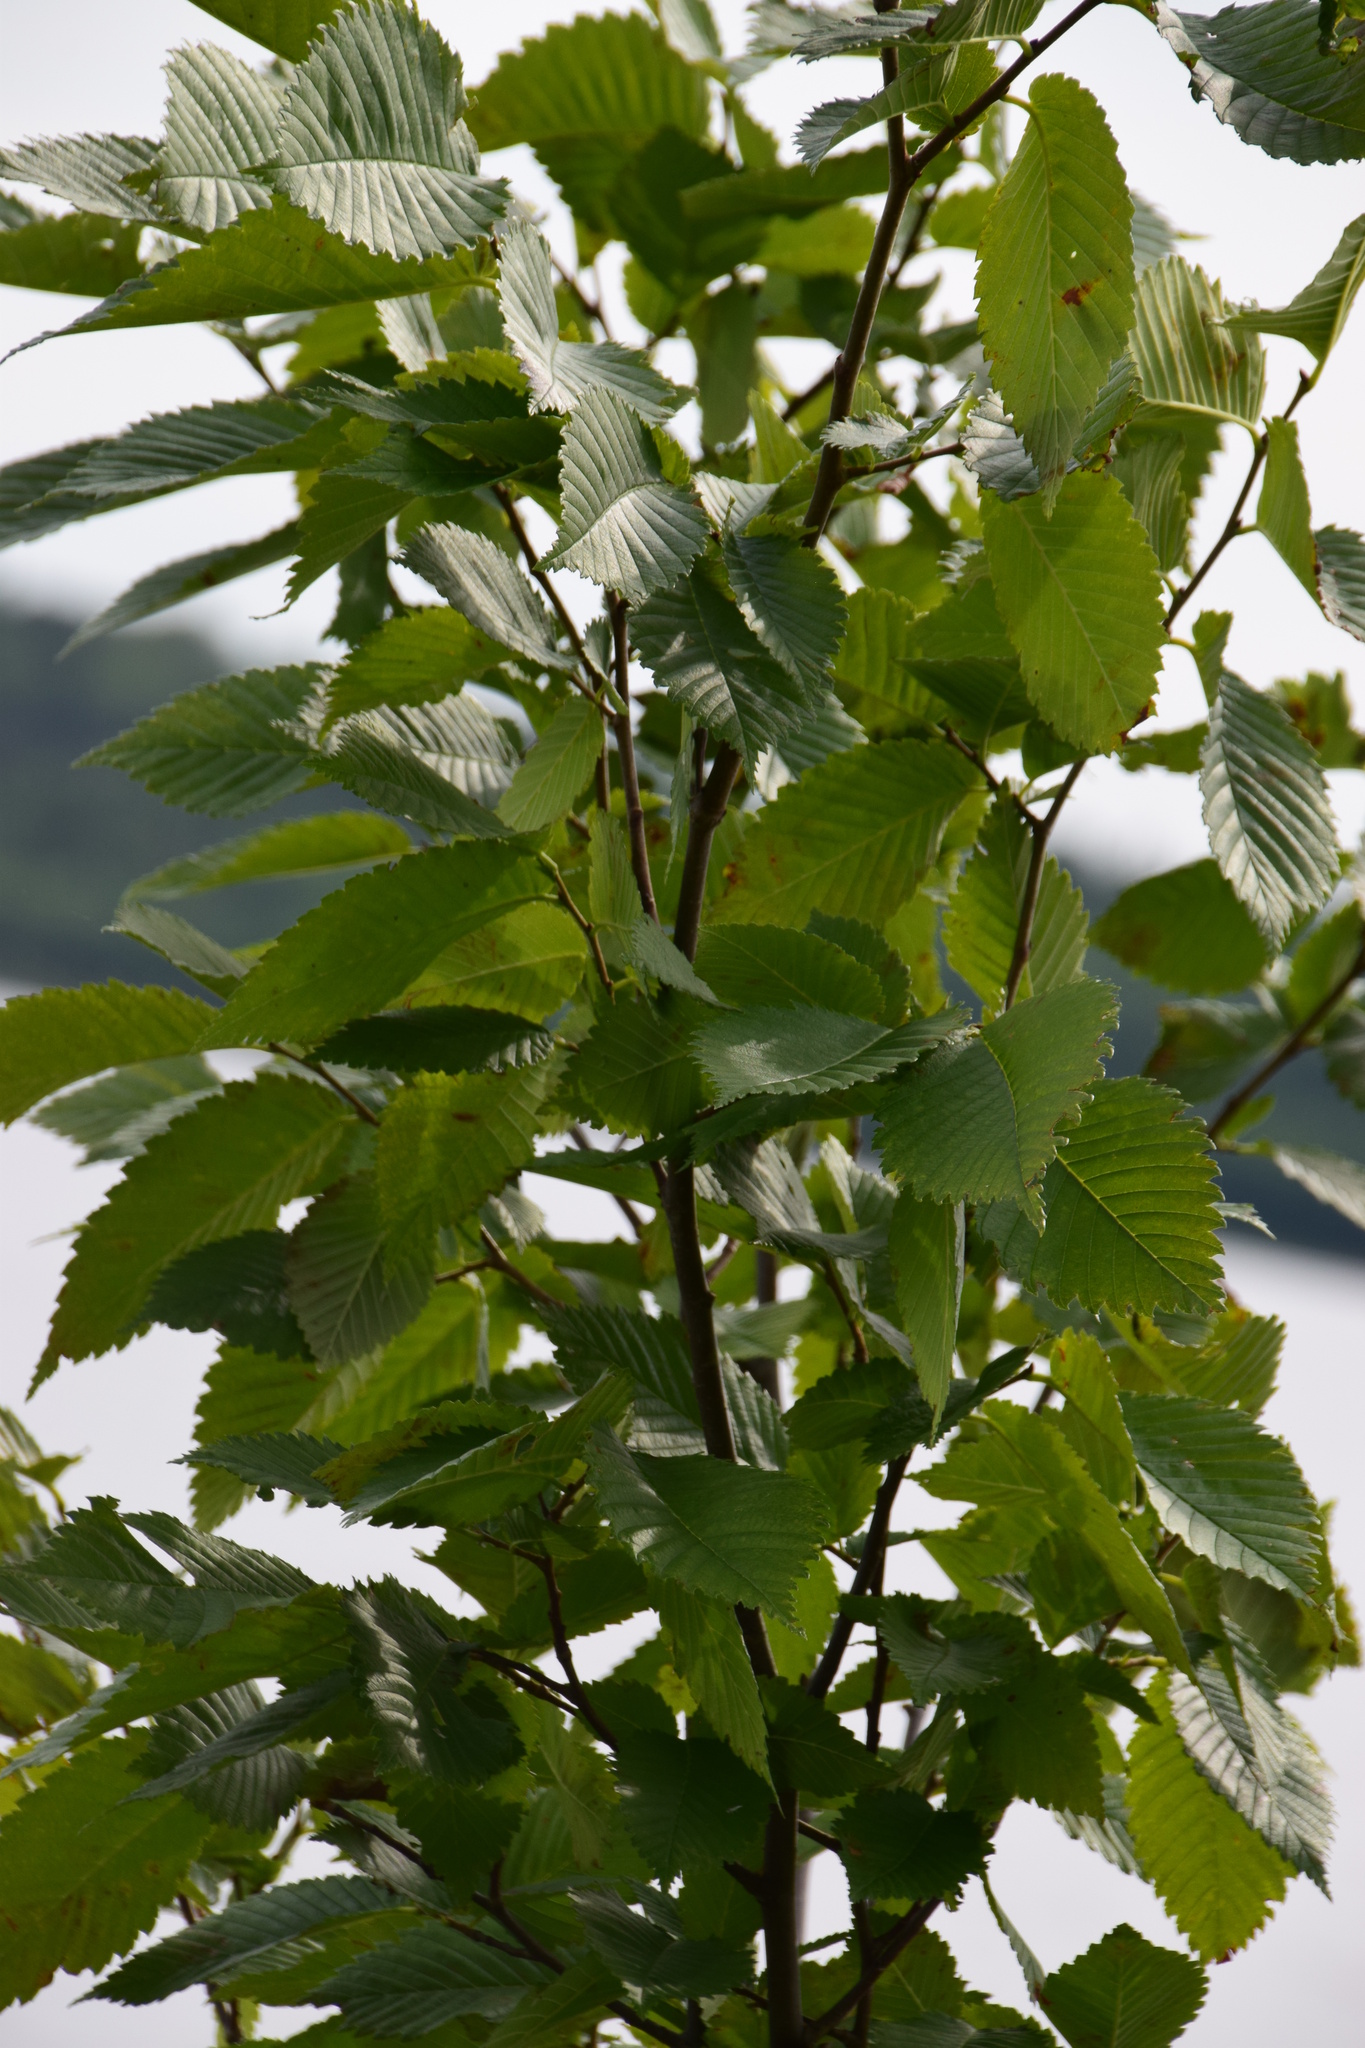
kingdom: Plantae
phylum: Tracheophyta
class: Magnoliopsida
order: Rosales
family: Ulmaceae
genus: Ulmus
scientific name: Ulmus americana
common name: American elm
